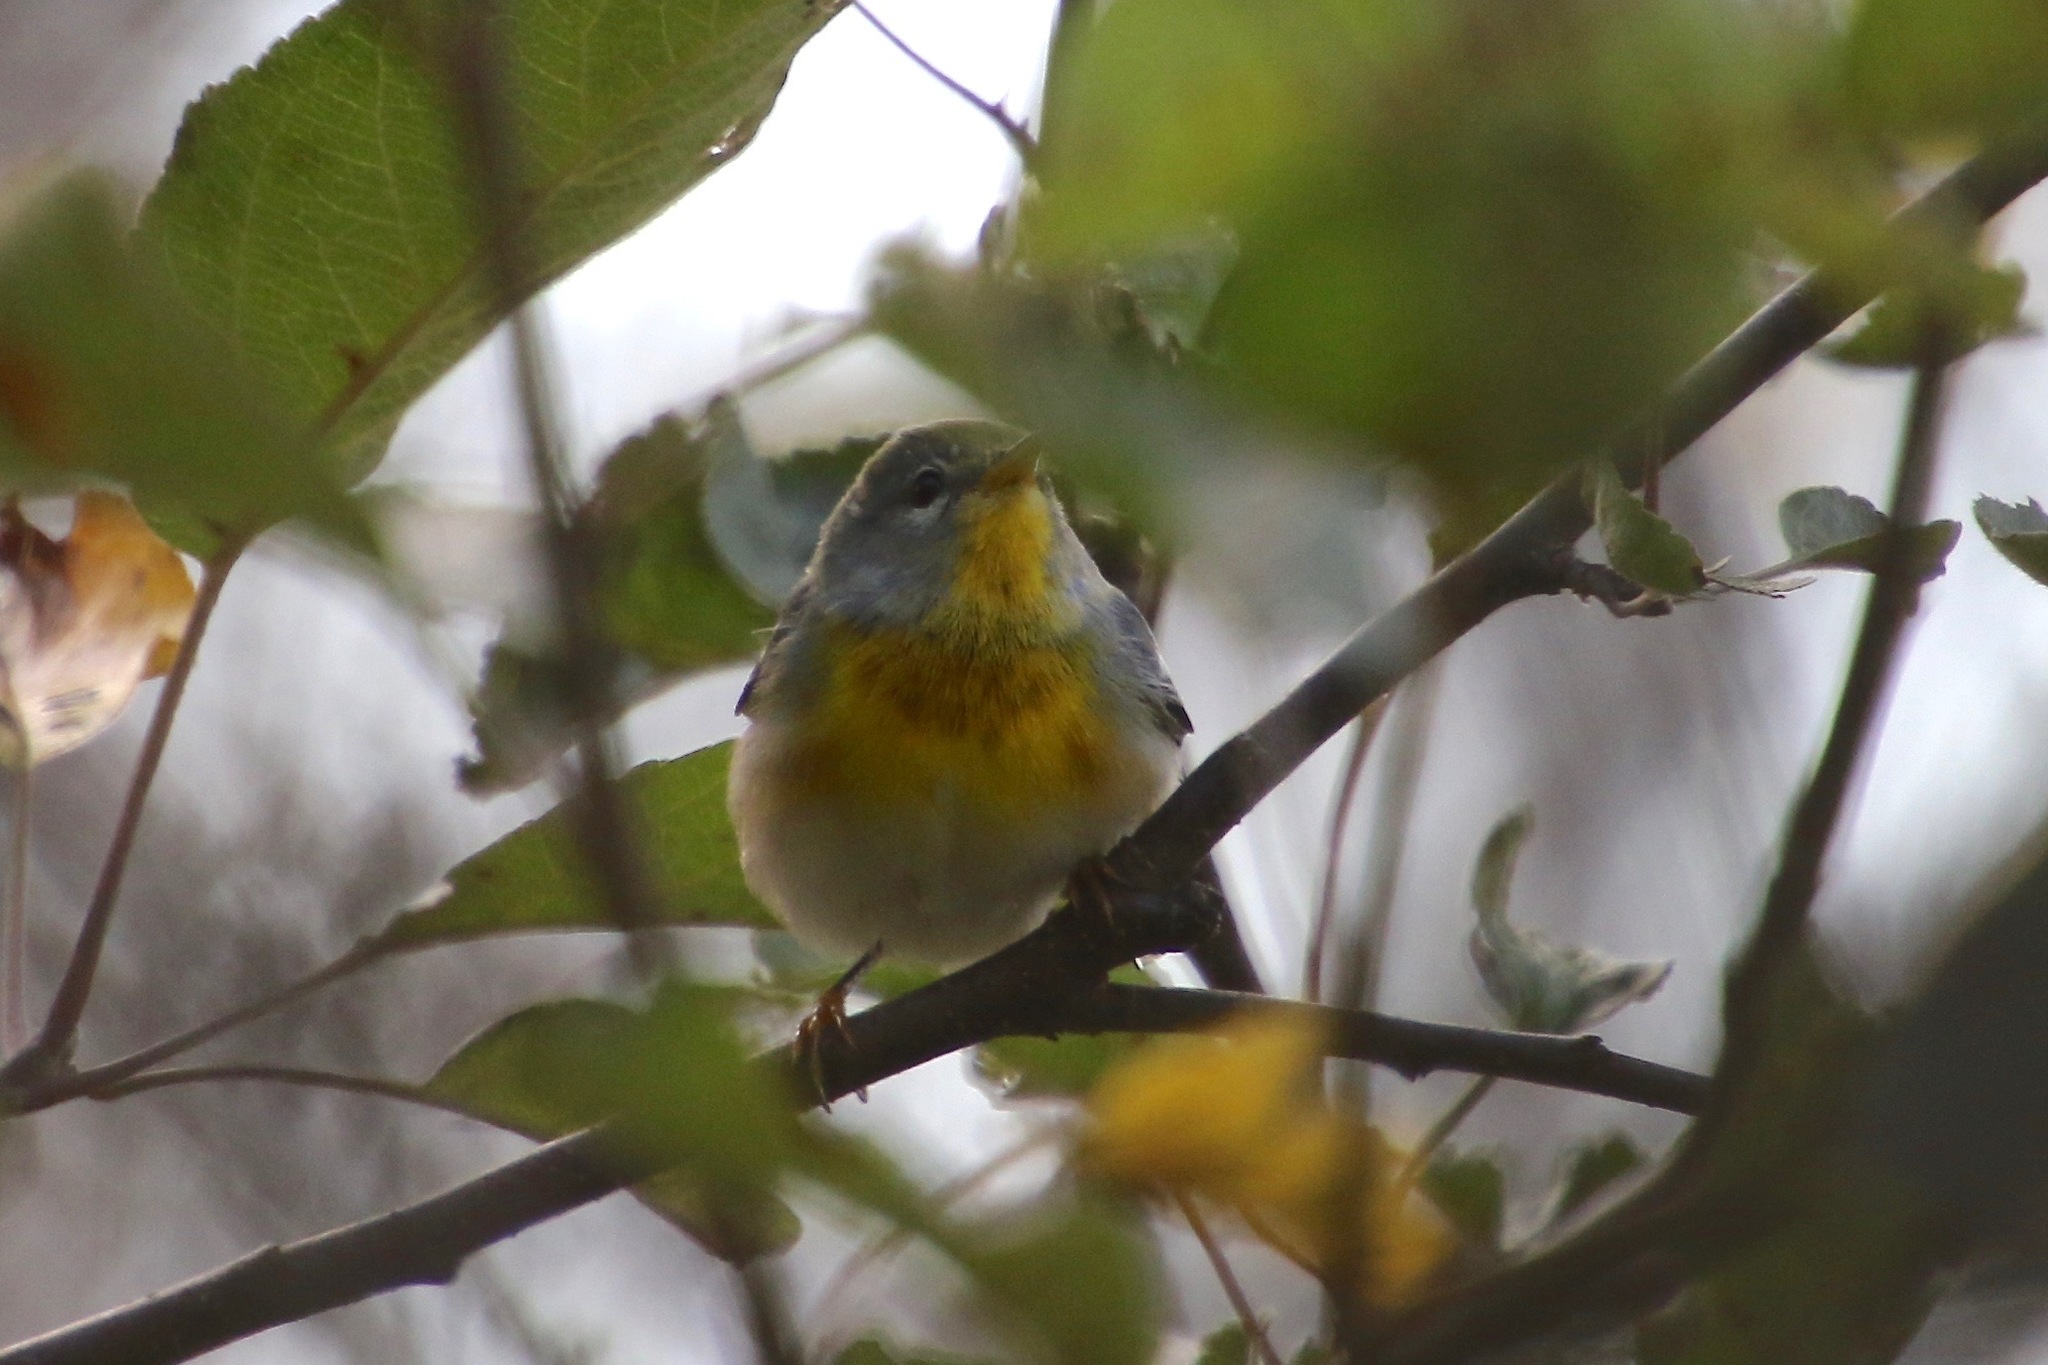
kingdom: Animalia
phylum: Chordata
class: Aves
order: Passeriformes
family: Parulidae
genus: Setophaga
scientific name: Setophaga americana
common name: Northern parula
